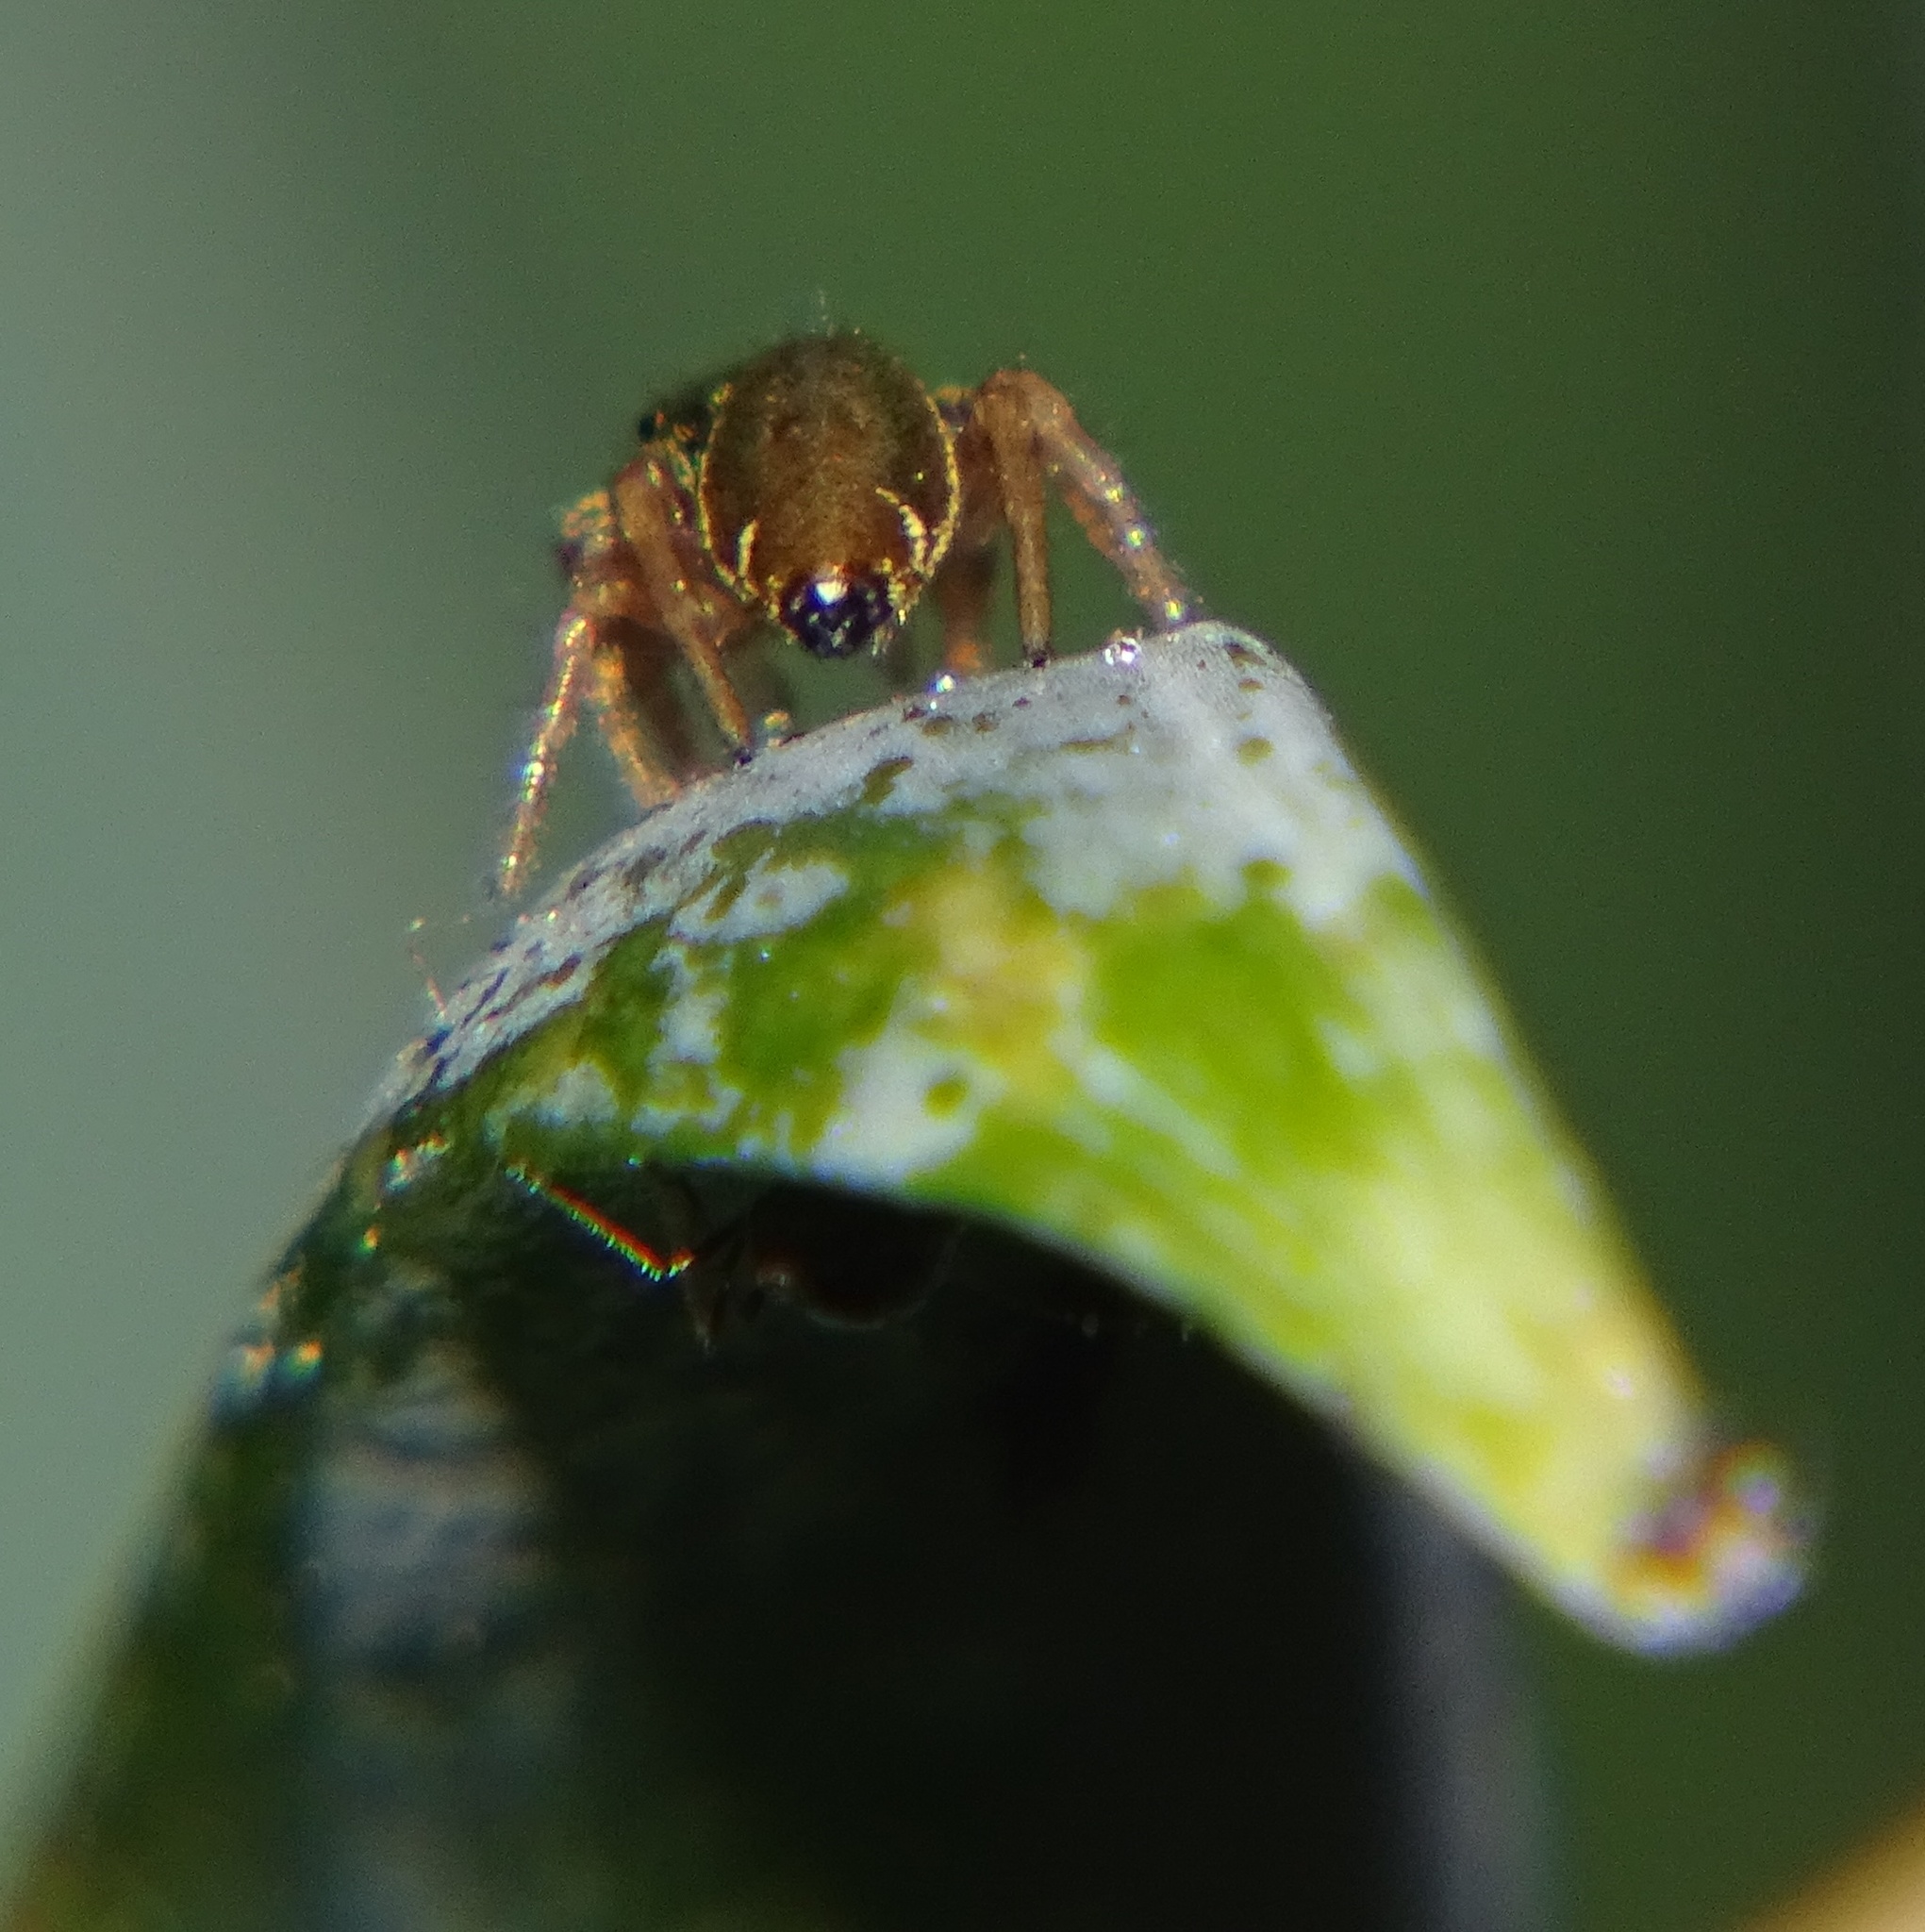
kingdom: Animalia
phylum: Arthropoda
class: Arachnida
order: Araneae
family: Salticidae
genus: Sassacus
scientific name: Sassacus vitis
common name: Jumping spiders
